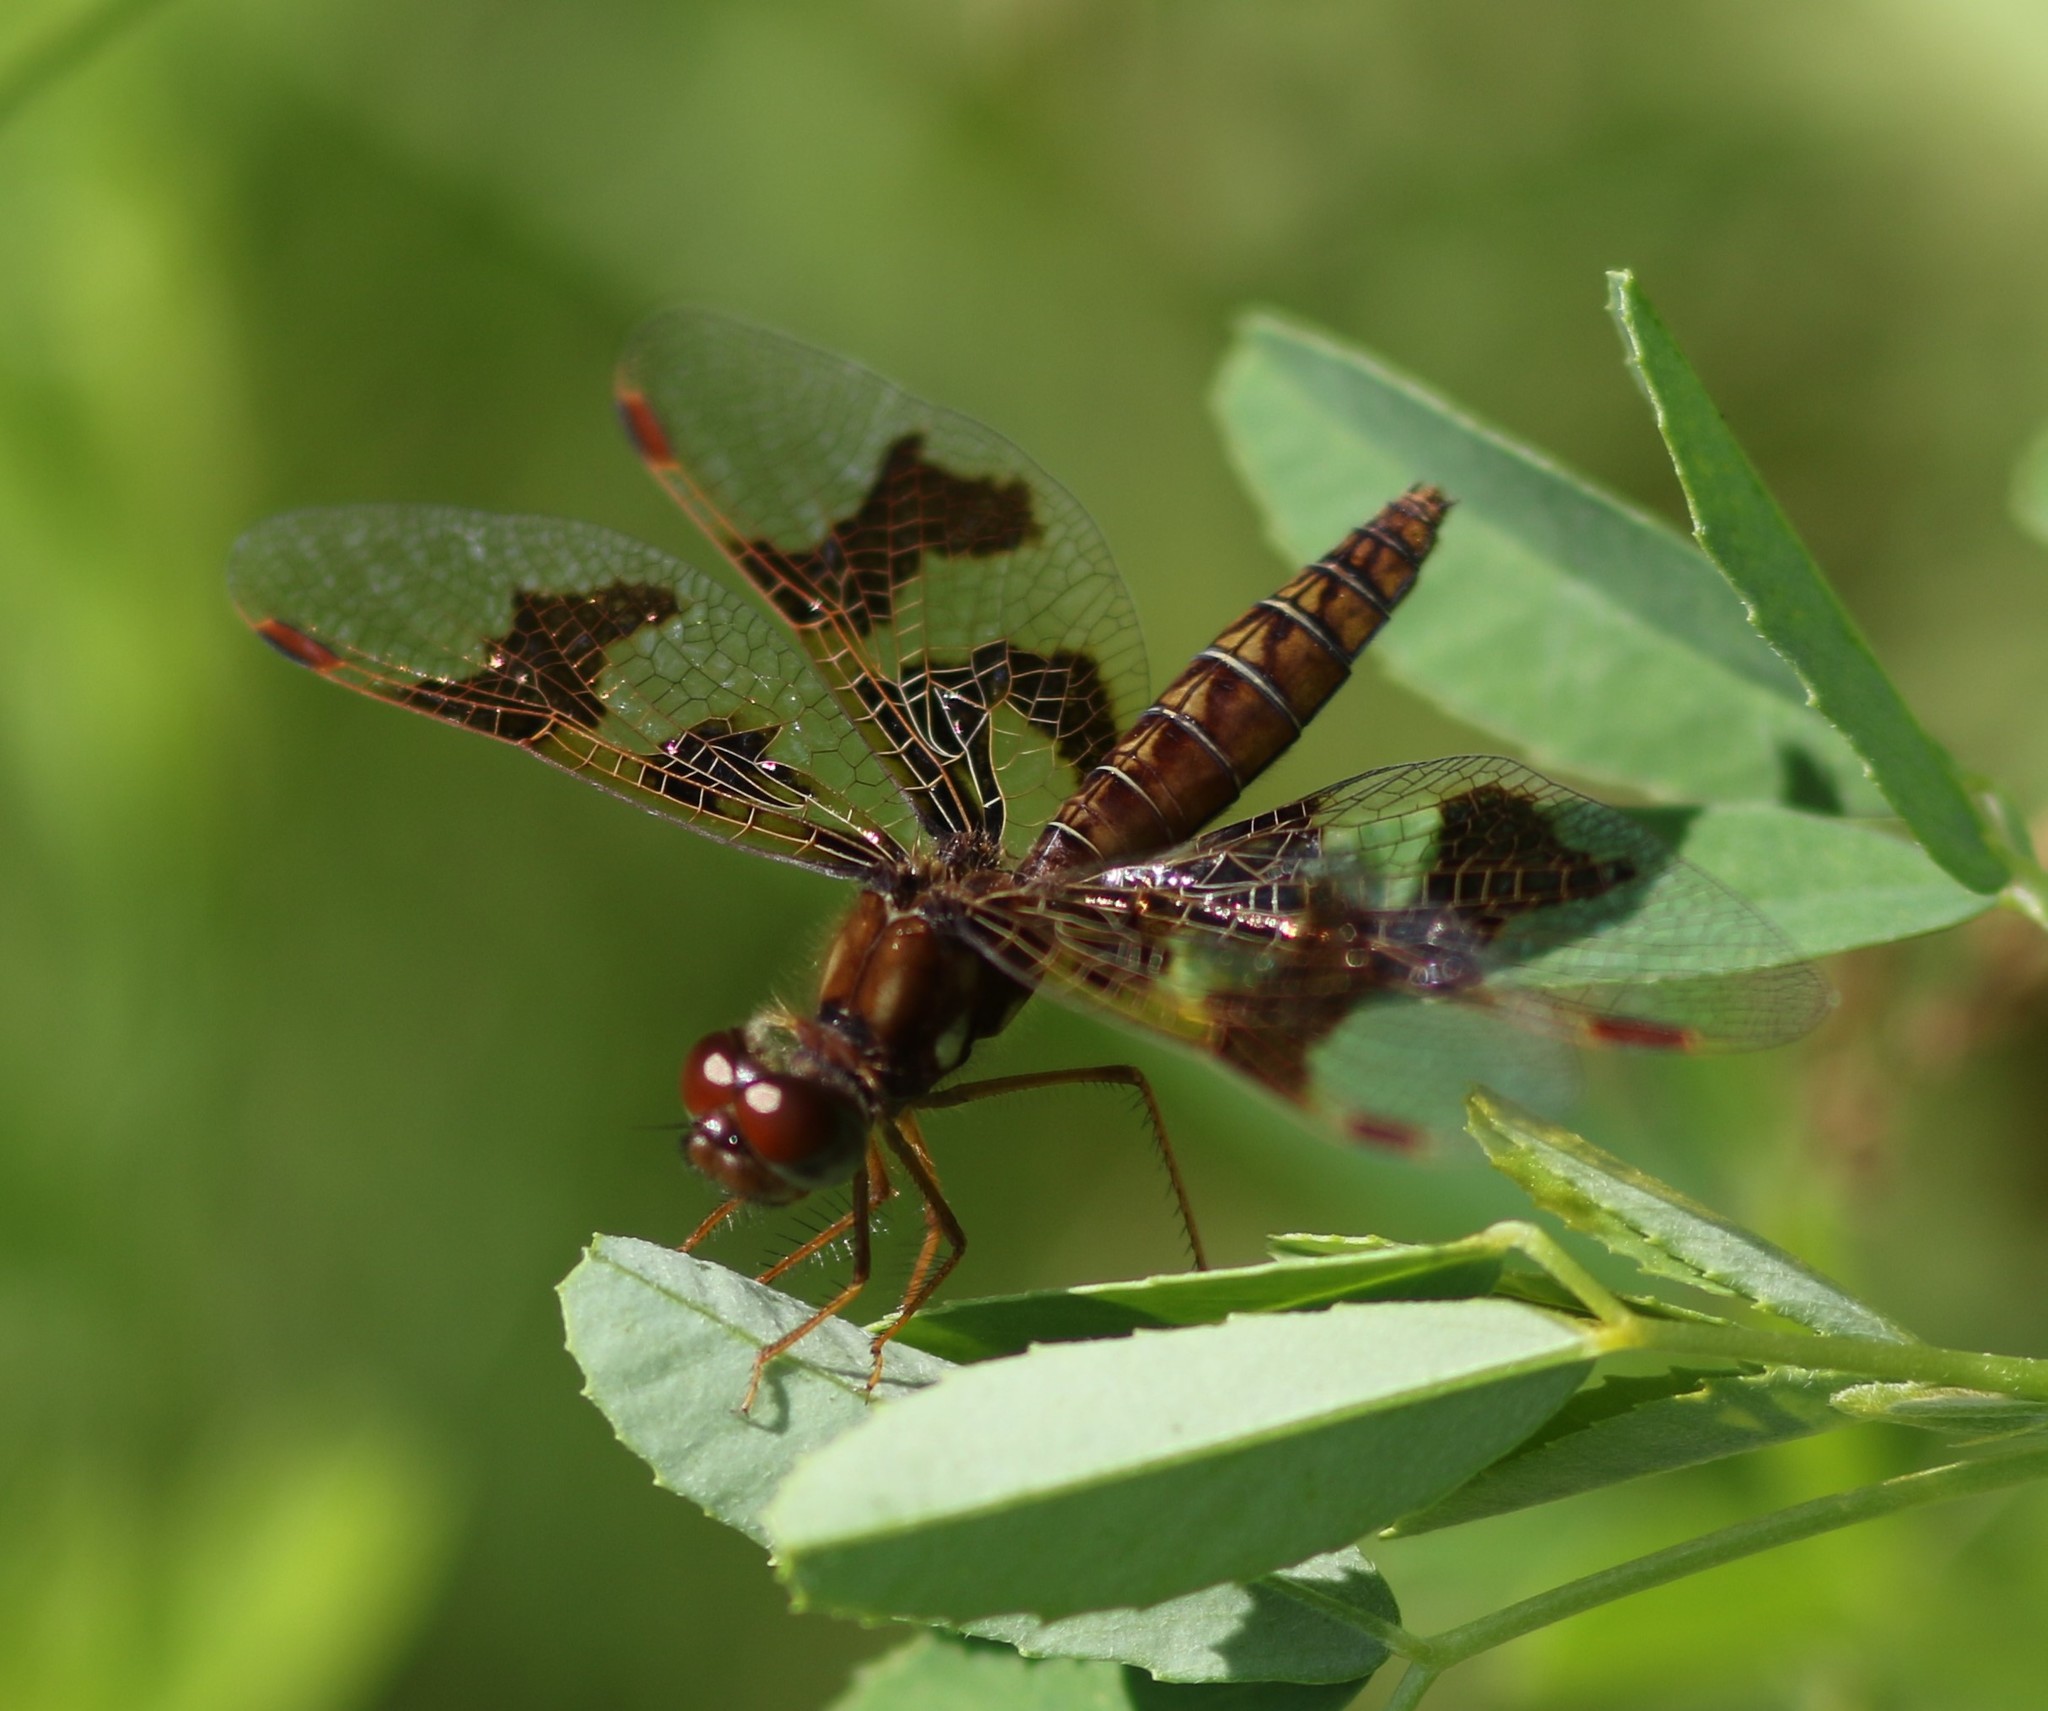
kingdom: Animalia
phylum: Arthropoda
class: Insecta
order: Odonata
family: Libellulidae
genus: Perithemis
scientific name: Perithemis tenera
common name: Eastern amberwing
